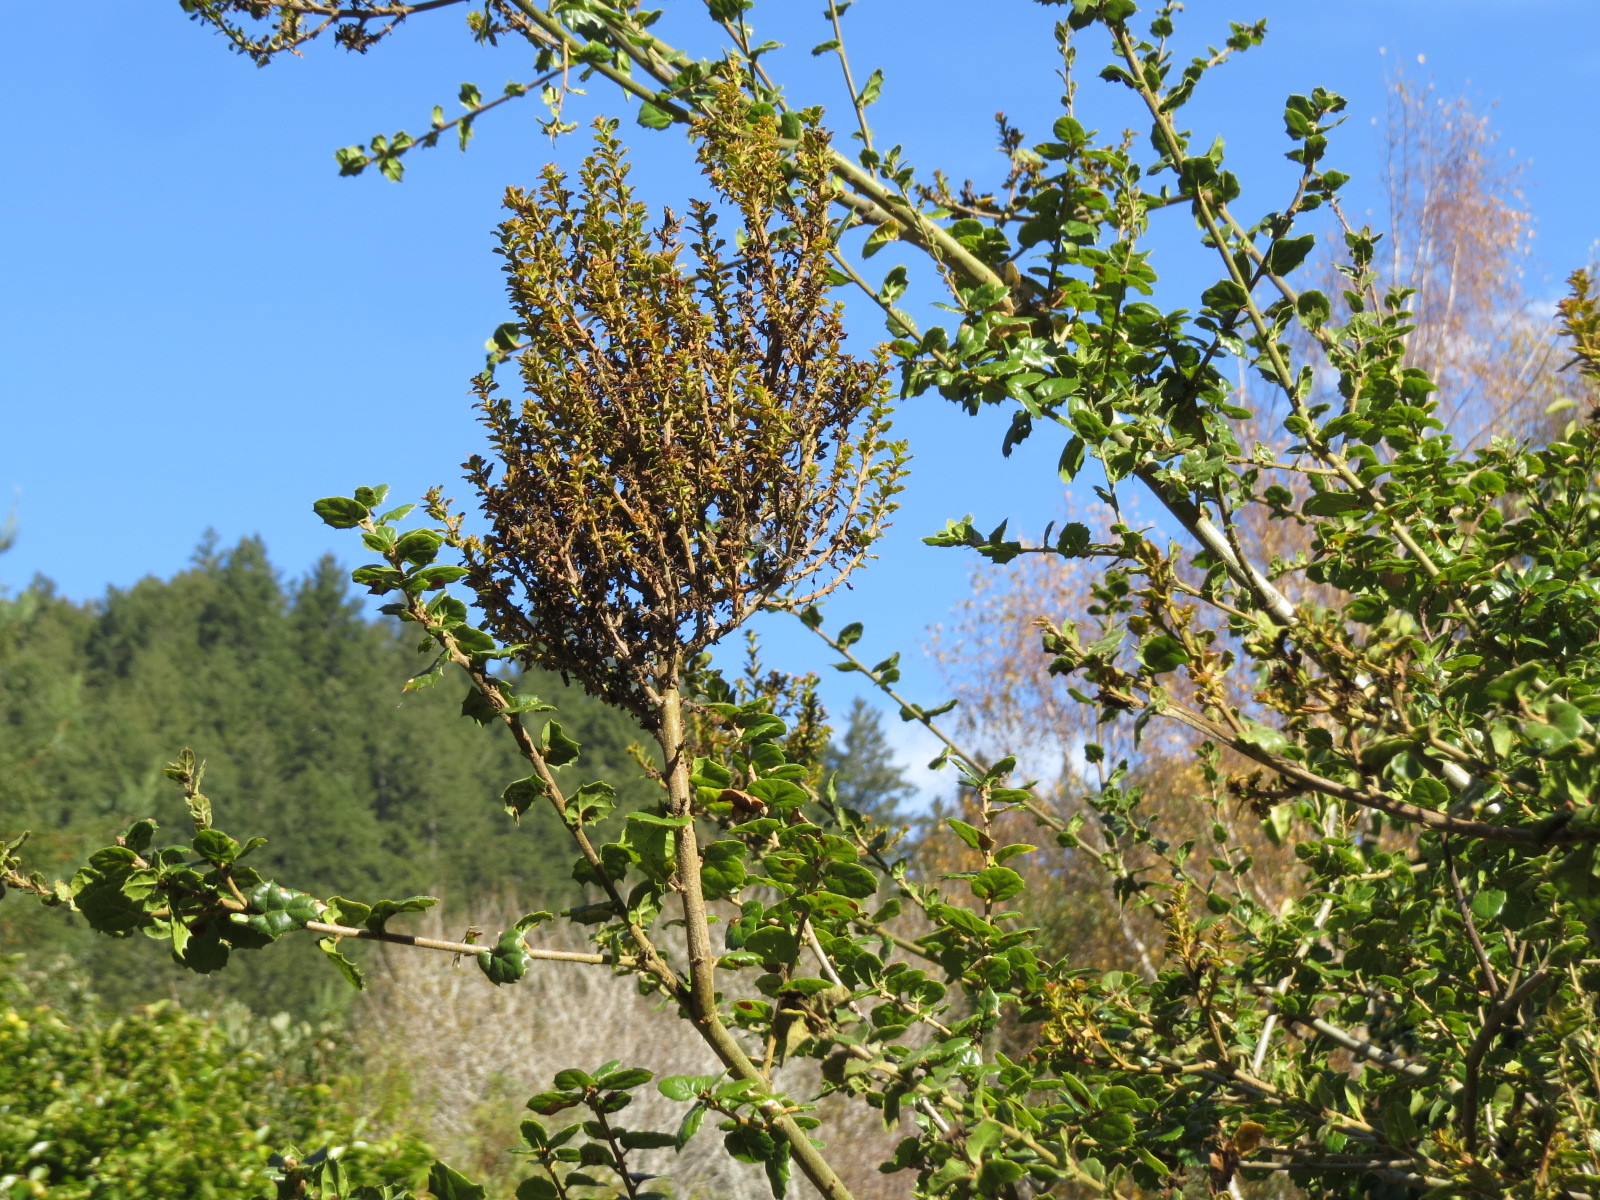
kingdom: Fungi
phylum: Ascomycota
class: Leotiomycetes
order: Helotiales
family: Erysiphaceae
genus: Cystotheca
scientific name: Cystotheca lanestris
